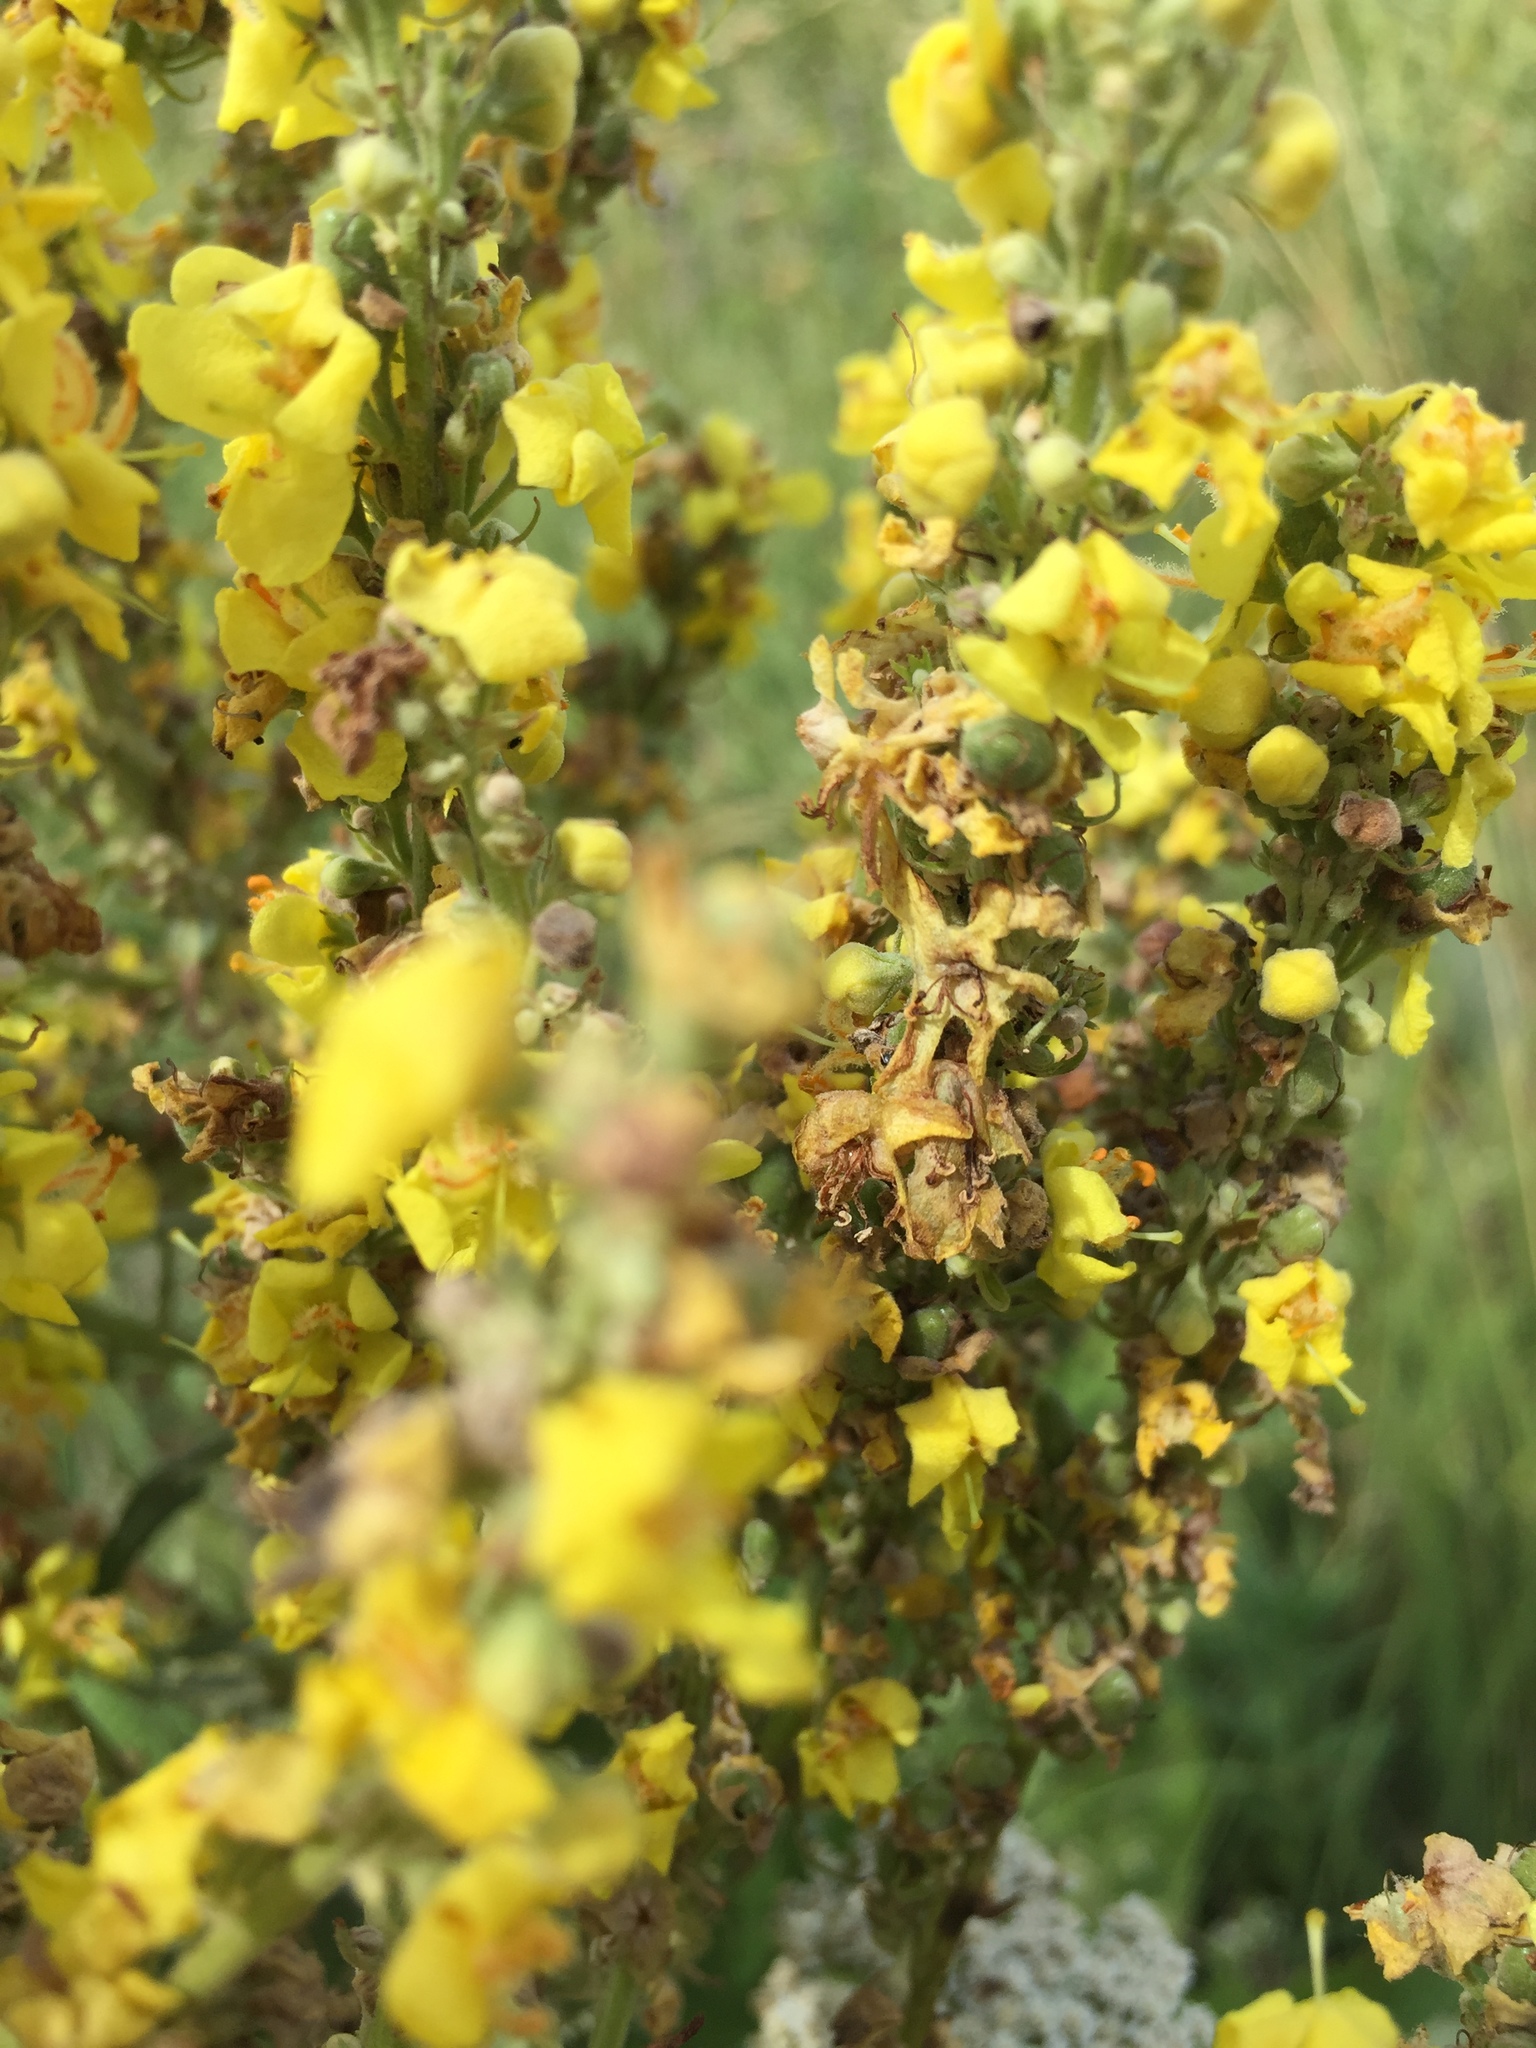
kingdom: Plantae
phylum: Tracheophyta
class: Magnoliopsida
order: Lamiales
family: Scrophulariaceae
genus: Verbascum
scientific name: Verbascum lychnitis
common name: White mullein
